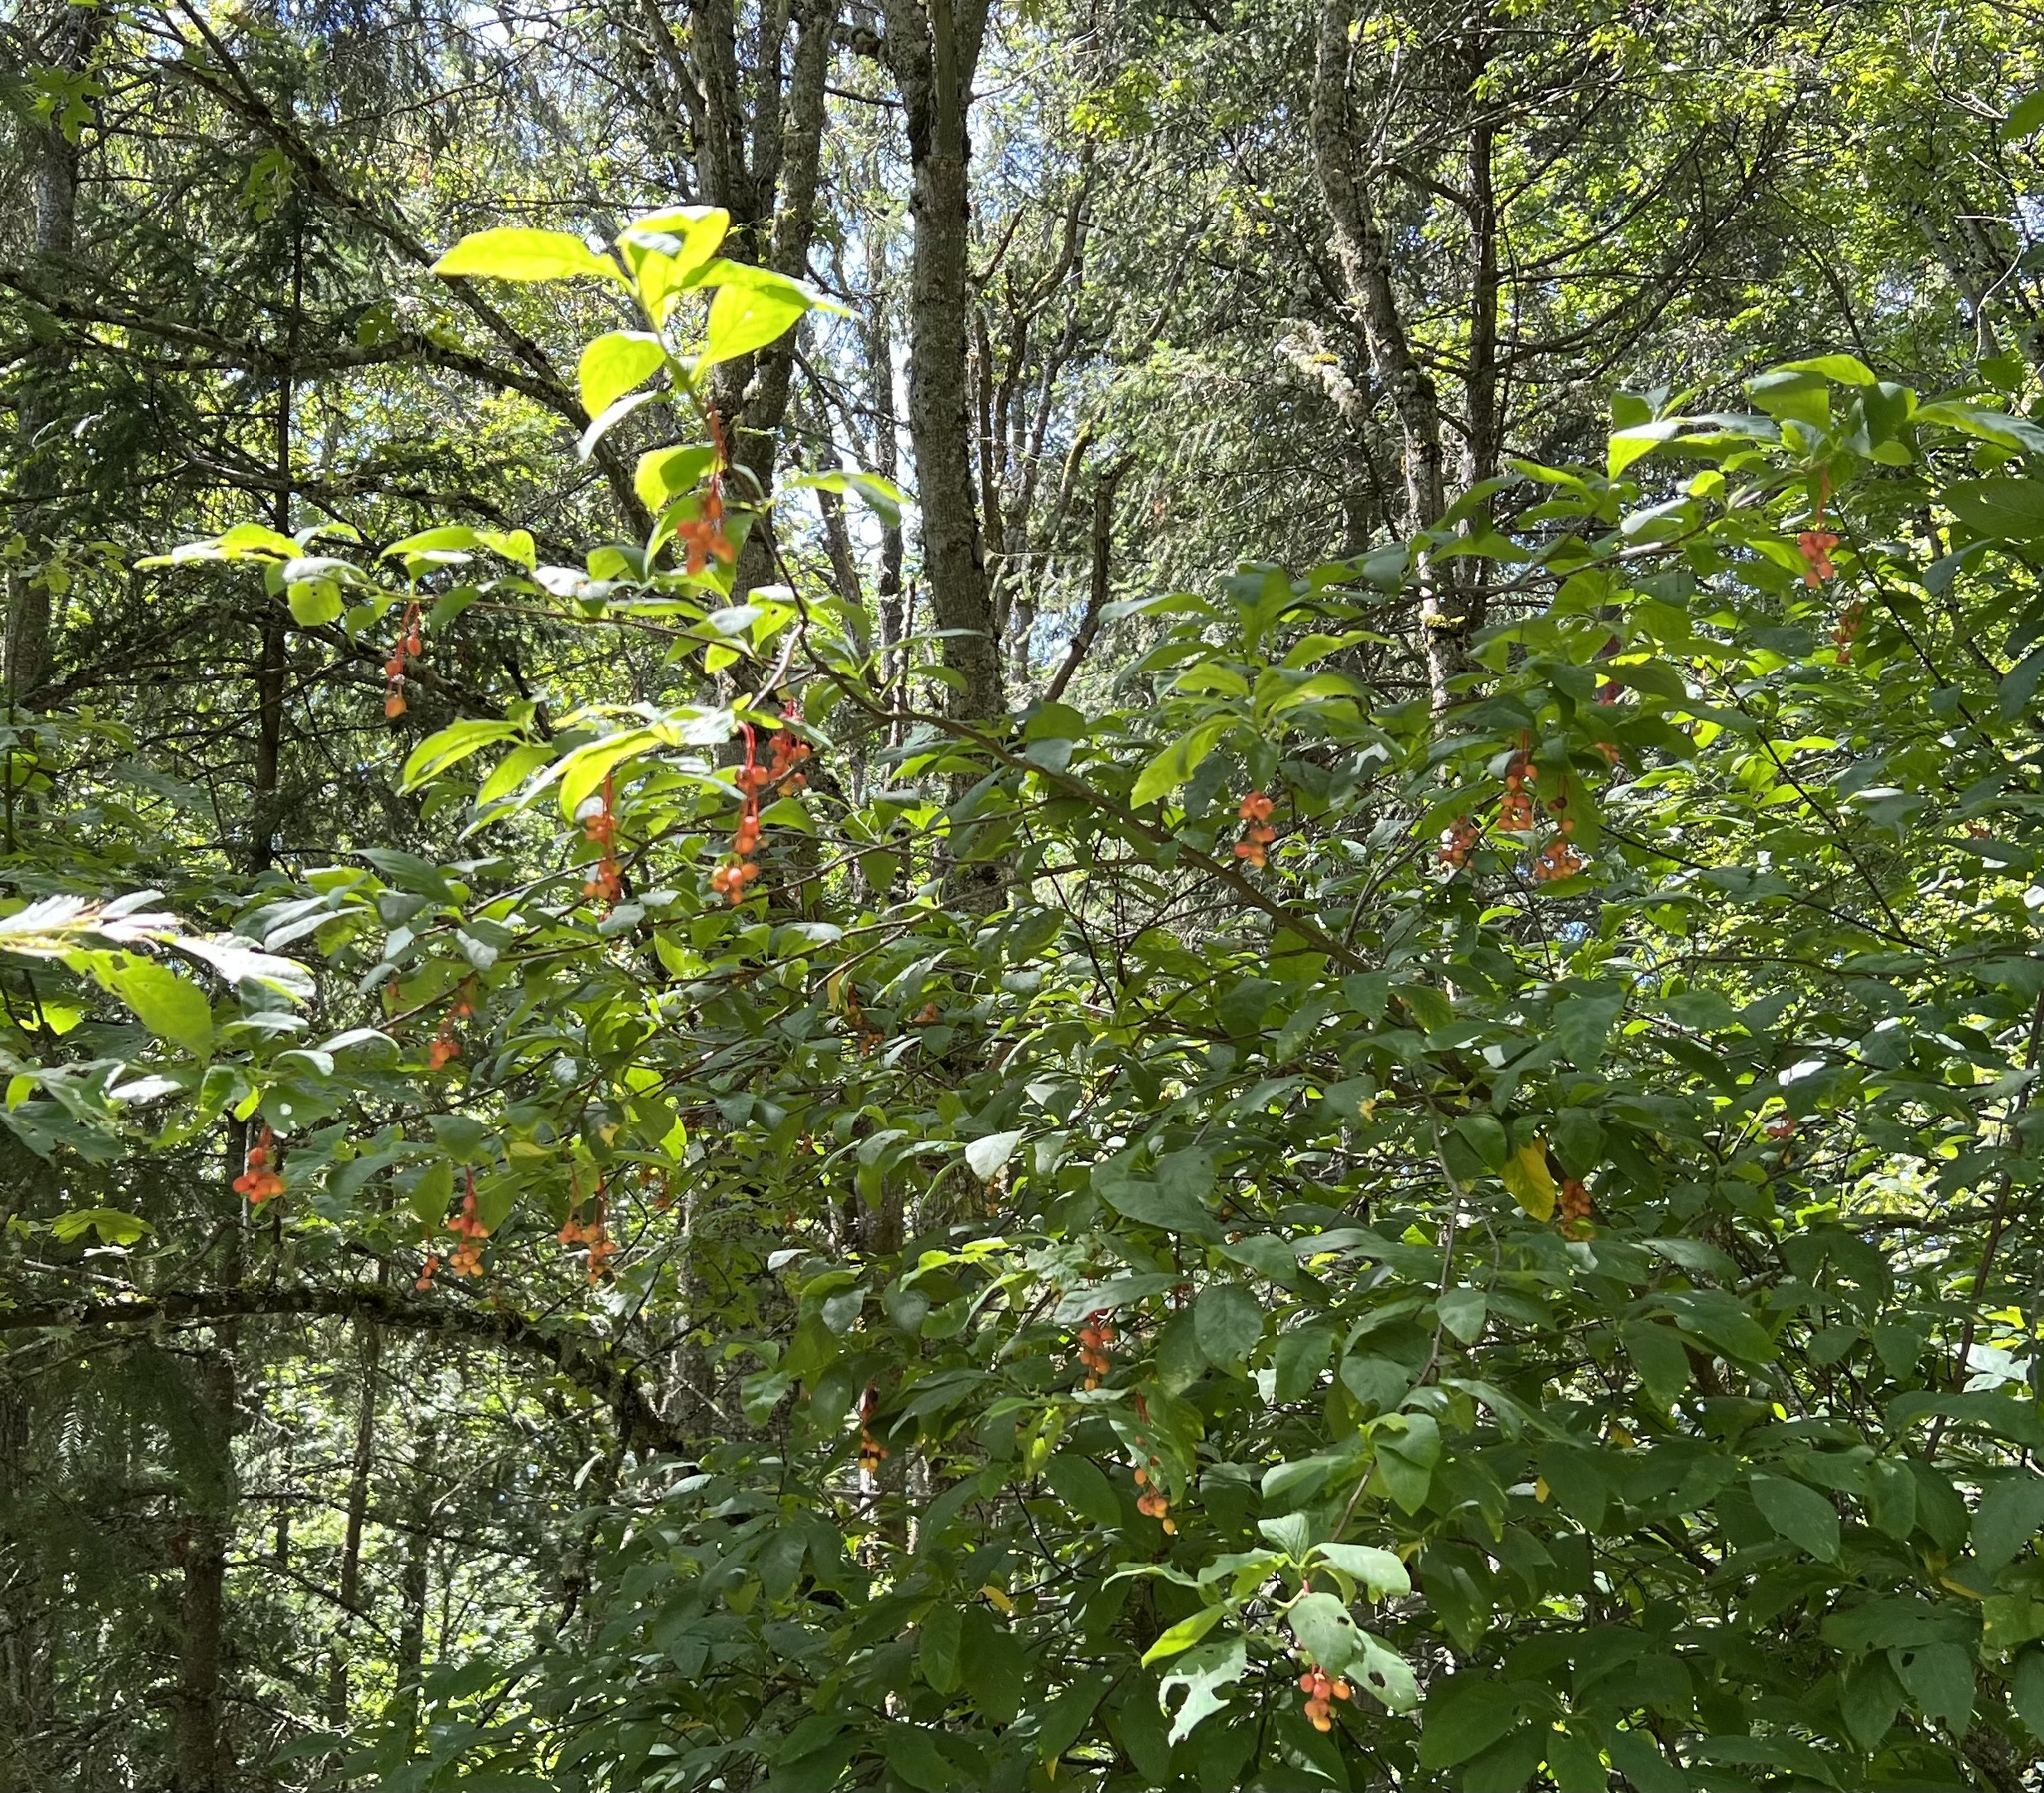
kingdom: Plantae
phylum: Tracheophyta
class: Magnoliopsida
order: Rosales
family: Rosaceae
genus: Oemleria
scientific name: Oemleria cerasiformis
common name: Osoberry
